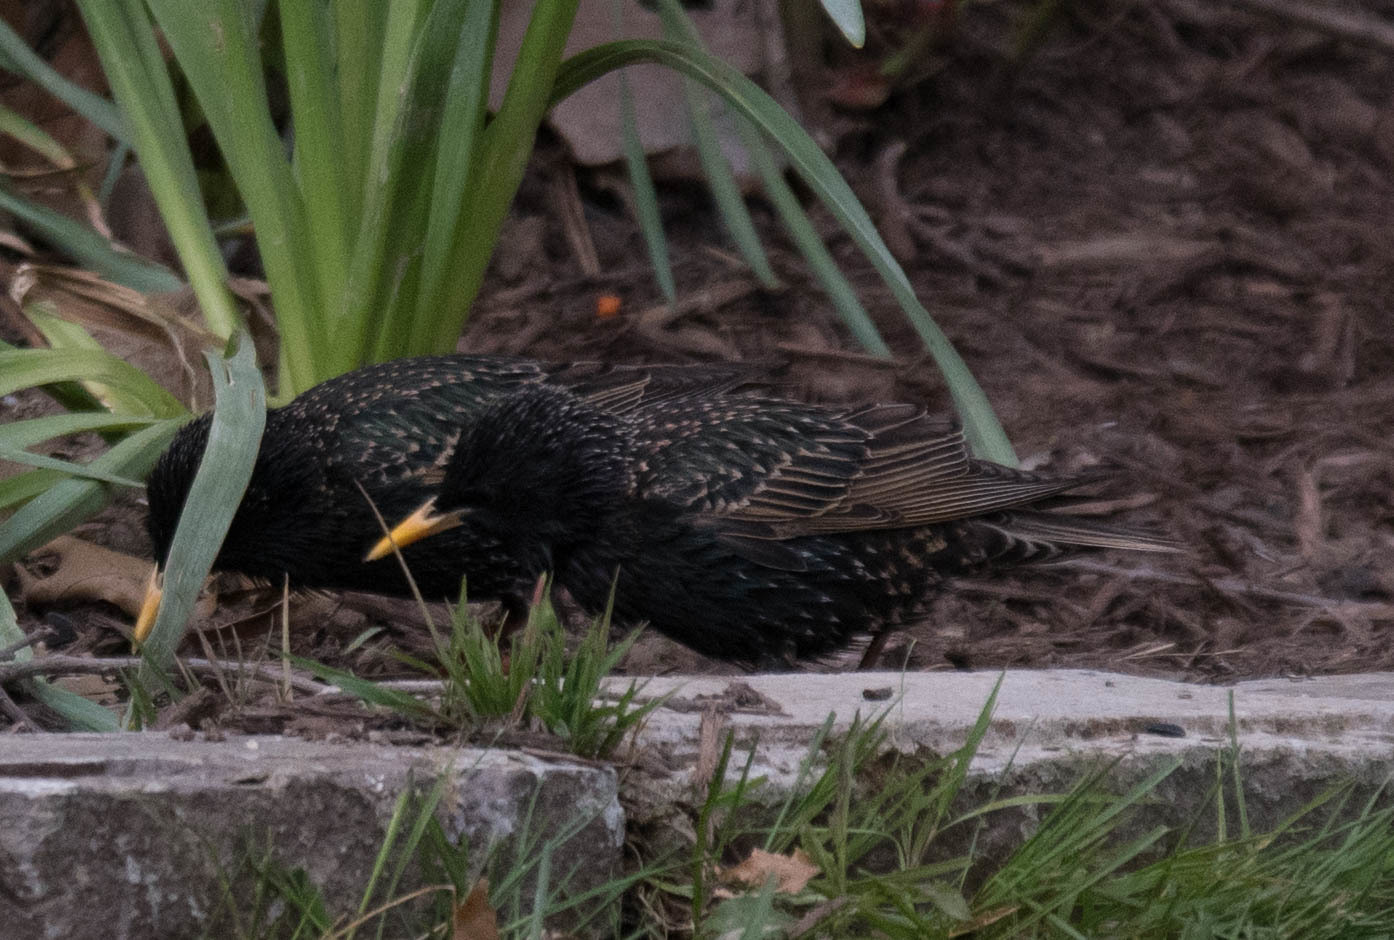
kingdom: Animalia
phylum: Chordata
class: Aves
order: Passeriformes
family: Sturnidae
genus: Sturnus
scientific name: Sturnus vulgaris
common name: Common starling
